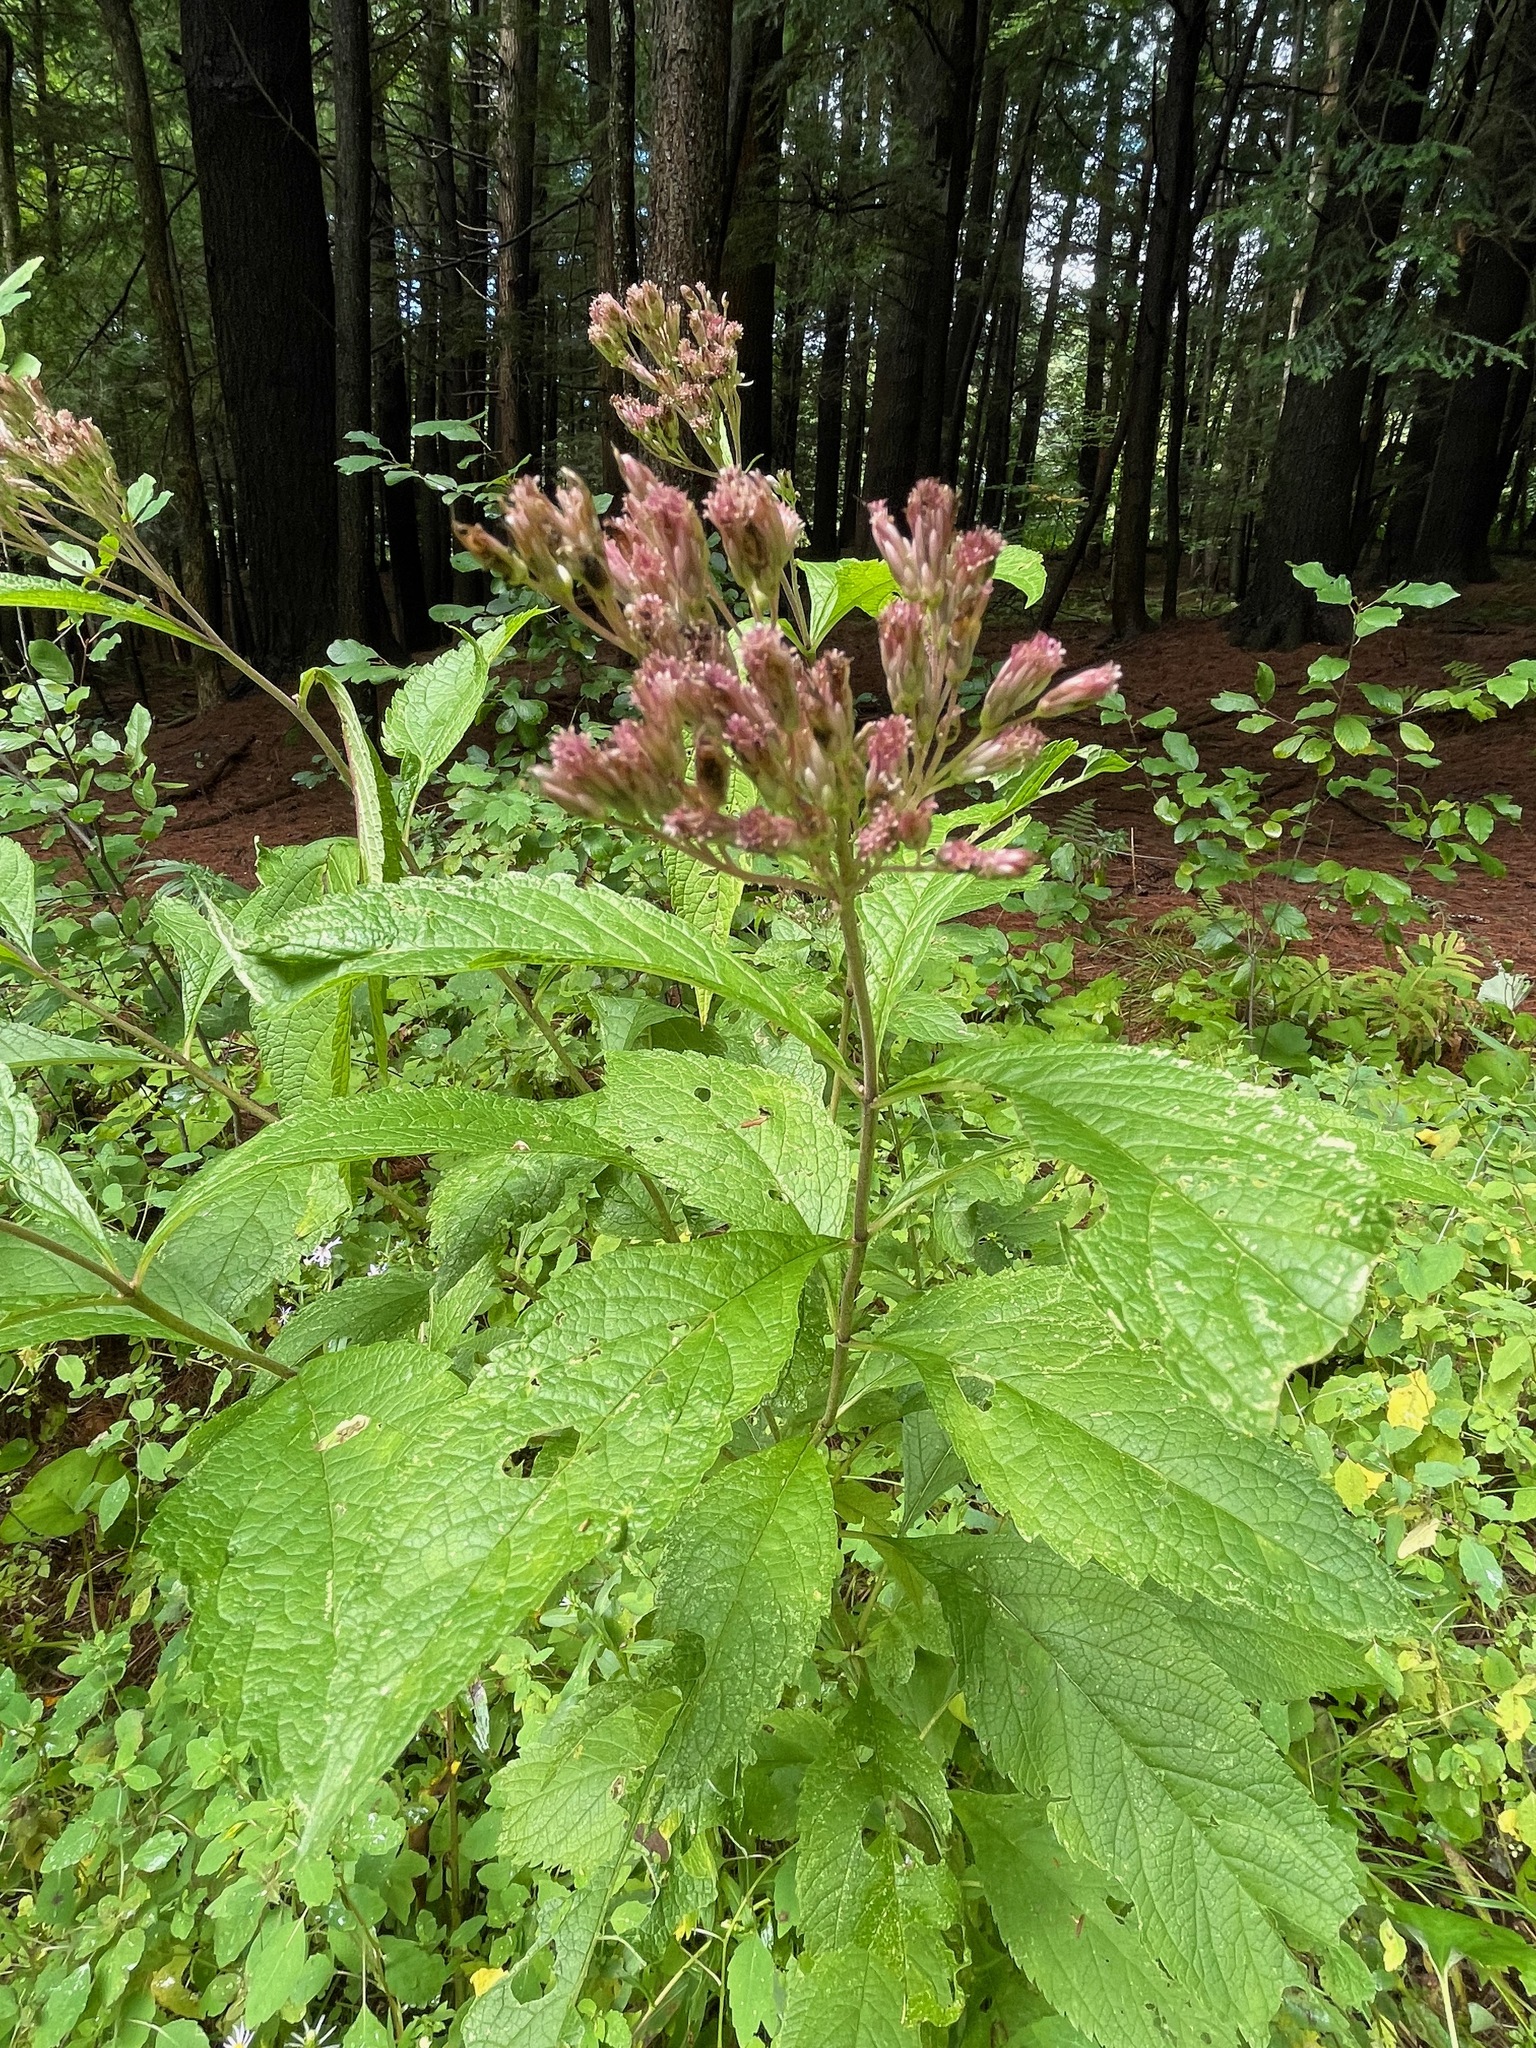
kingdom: Plantae
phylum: Tracheophyta
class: Magnoliopsida
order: Asterales
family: Asteraceae
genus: Eutrochium
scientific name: Eutrochium maculatum
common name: Spotted joe pye weed
